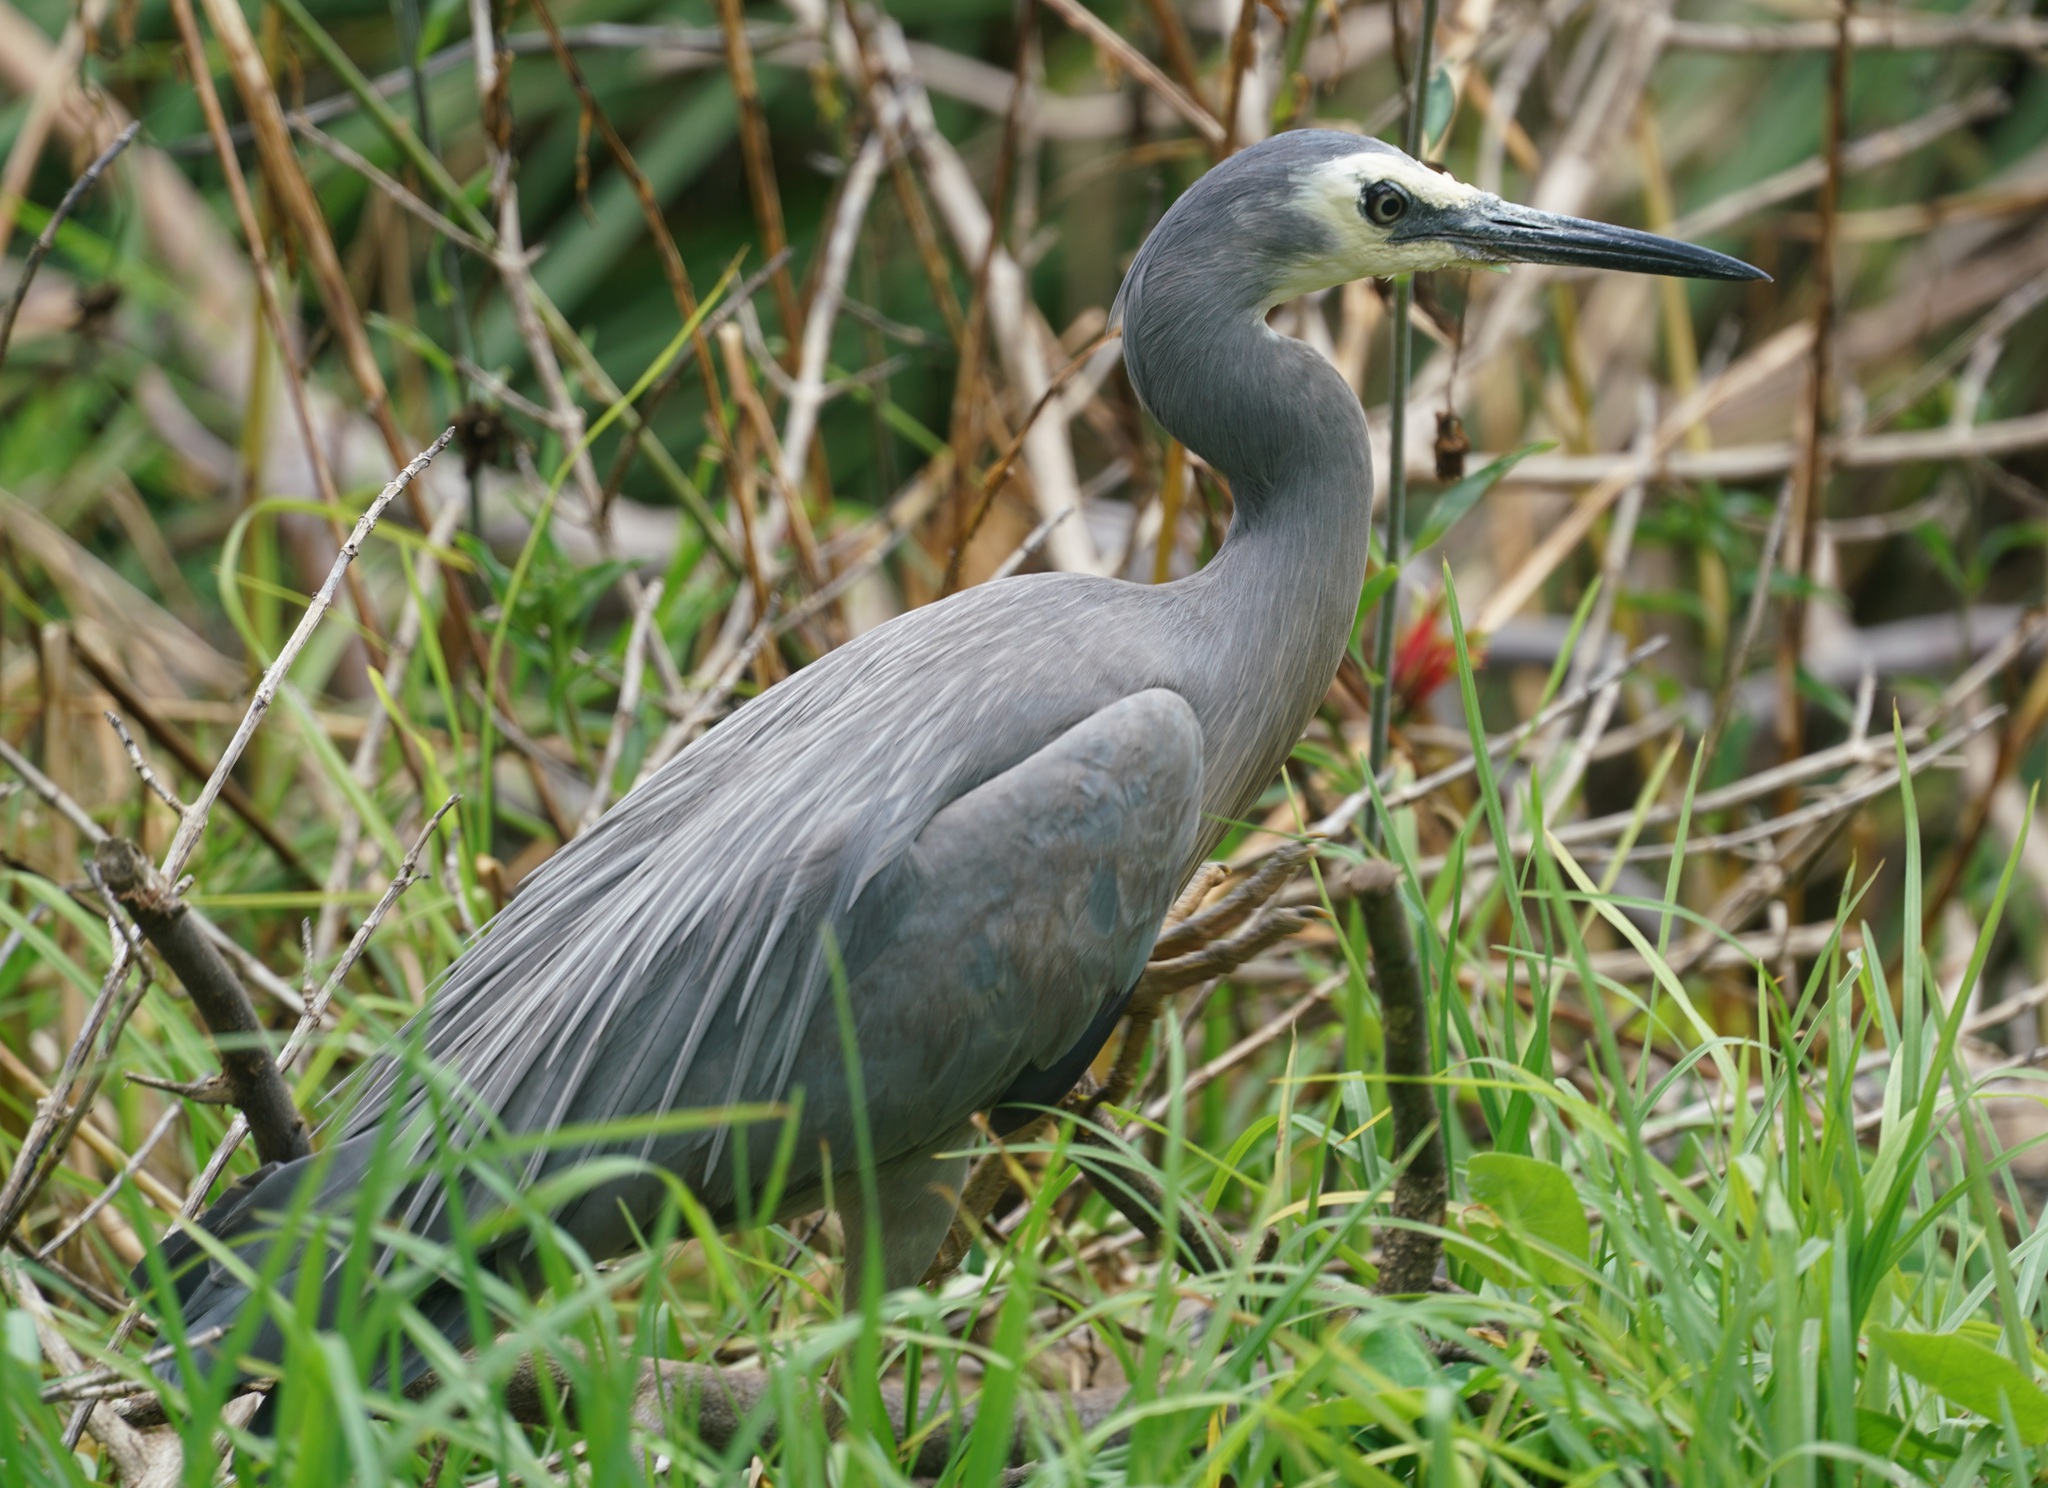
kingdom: Animalia
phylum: Chordata
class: Aves
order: Pelecaniformes
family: Ardeidae
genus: Egretta
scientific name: Egretta novaehollandiae
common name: White-faced heron
